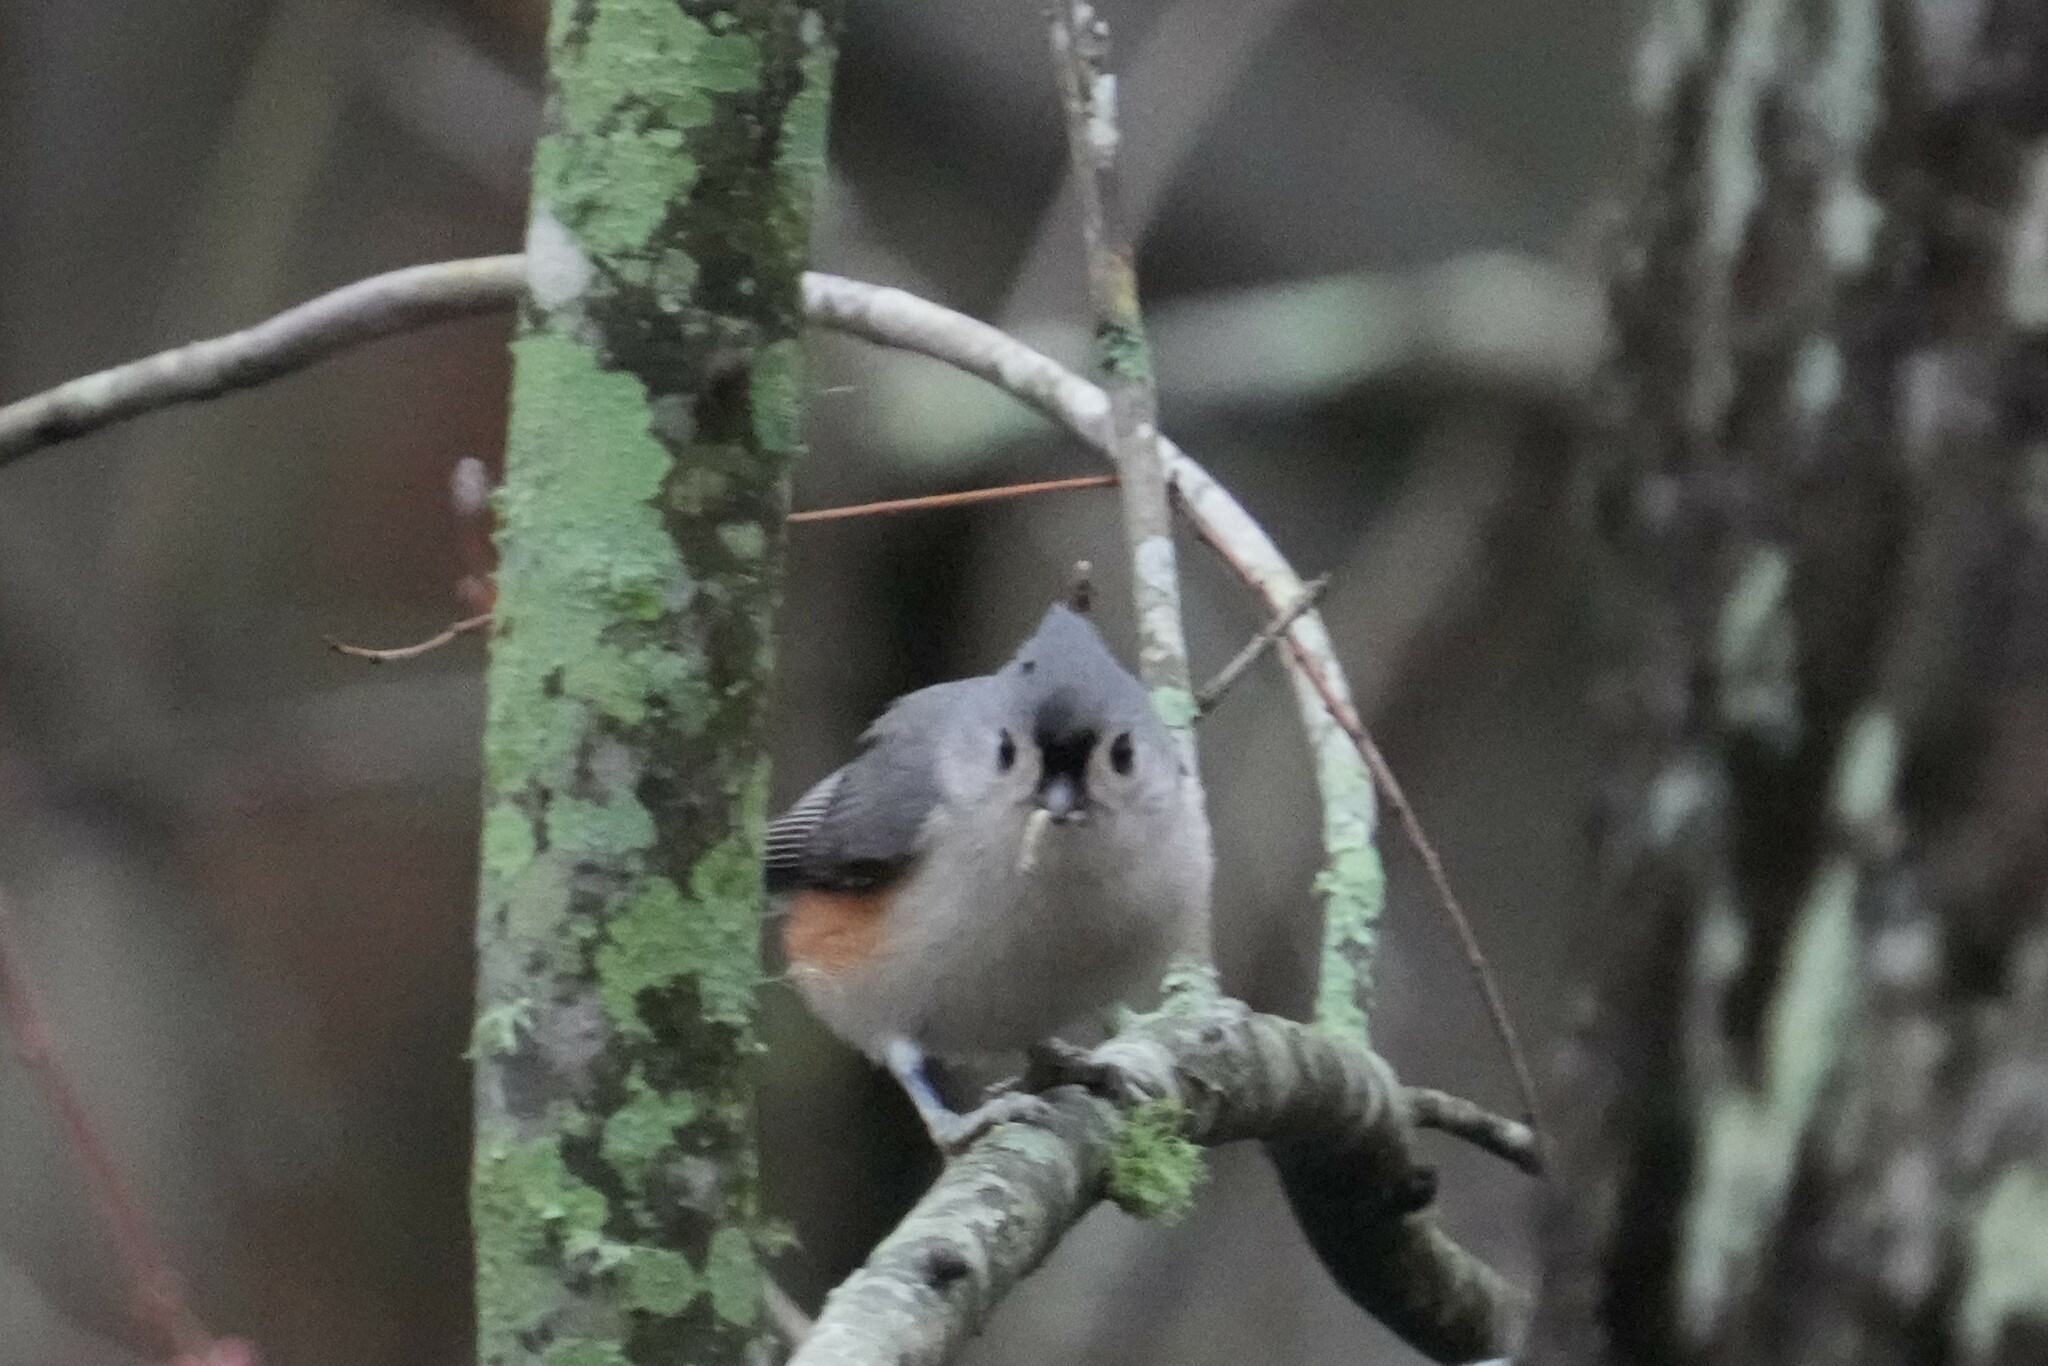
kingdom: Animalia
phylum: Chordata
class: Aves
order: Passeriformes
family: Paridae
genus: Baeolophus
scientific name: Baeolophus bicolor
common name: Tufted titmouse
